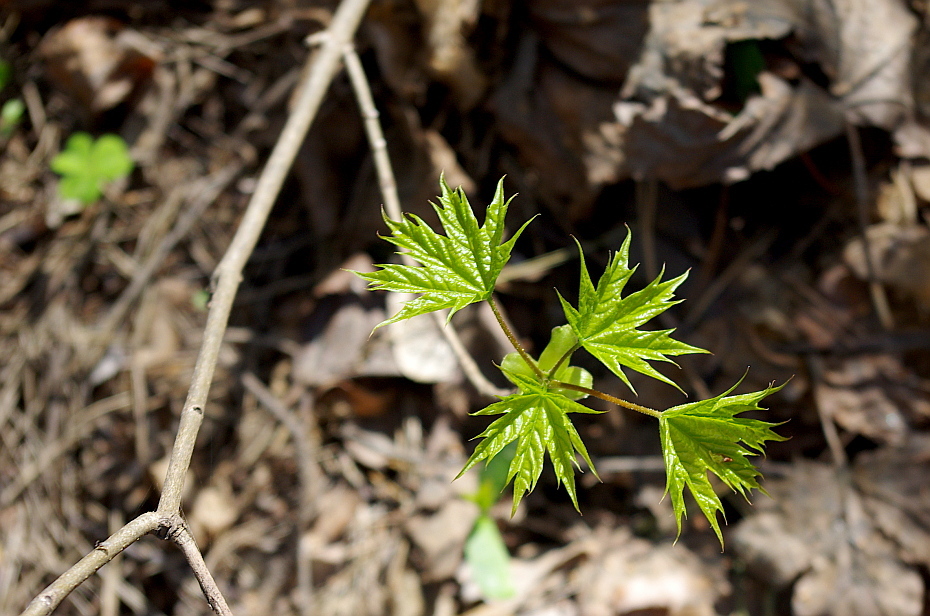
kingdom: Plantae
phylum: Tracheophyta
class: Magnoliopsida
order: Sapindales
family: Sapindaceae
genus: Acer
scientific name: Acer platanoides
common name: Norway maple
